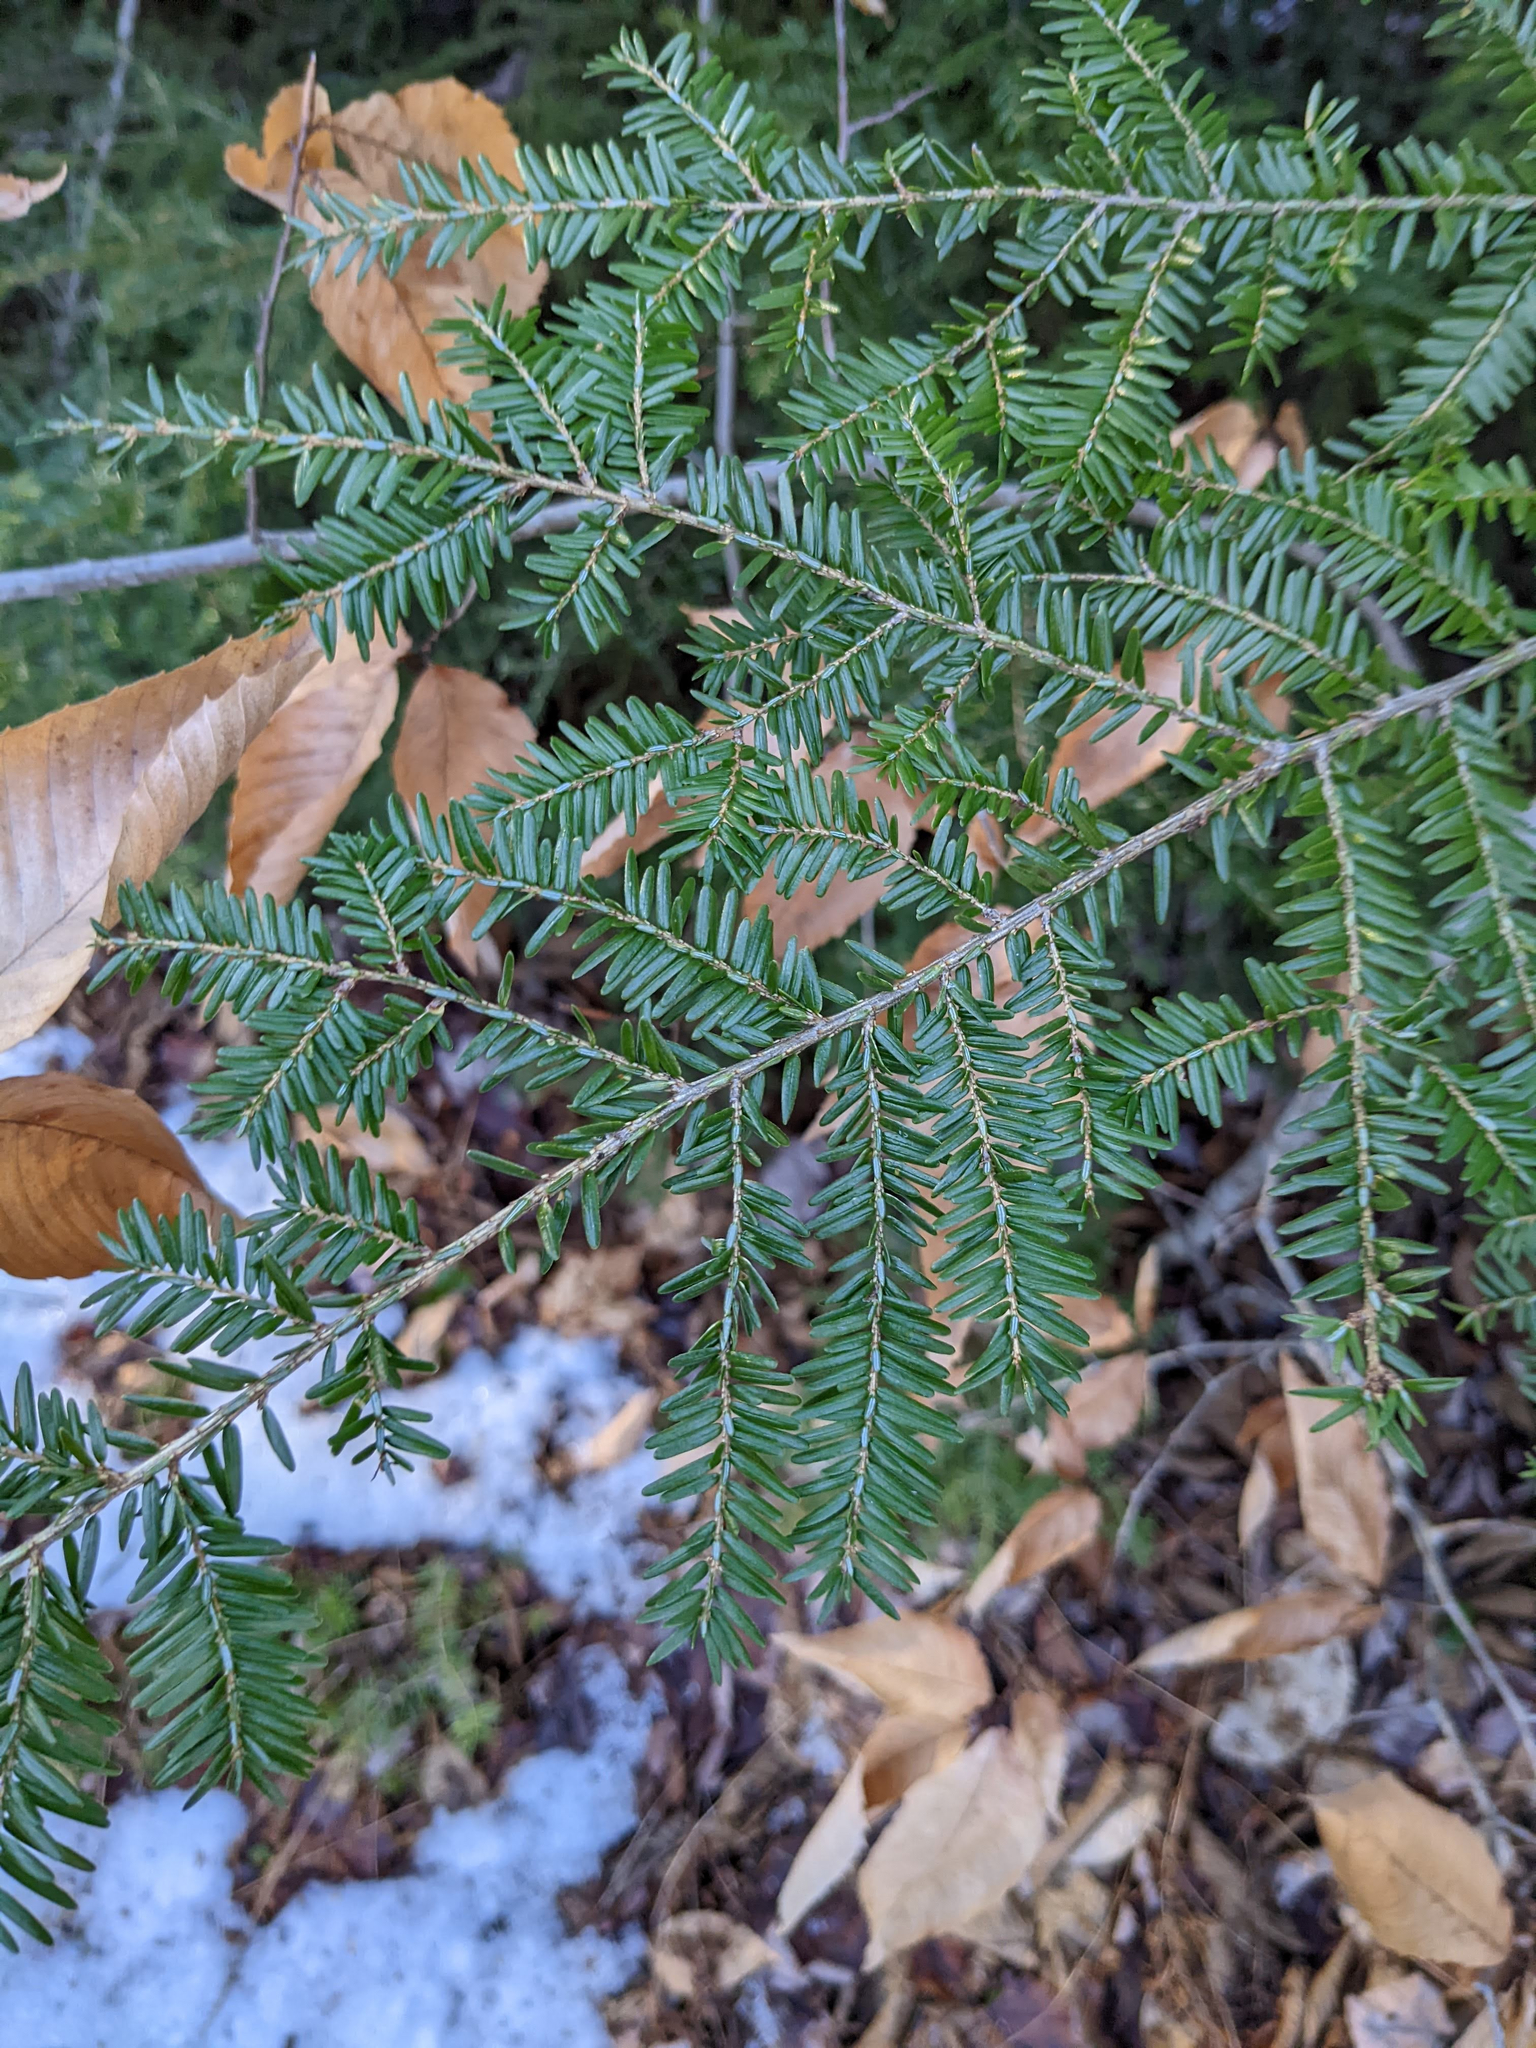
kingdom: Plantae
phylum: Tracheophyta
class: Pinopsida
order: Pinales
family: Pinaceae
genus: Tsuga
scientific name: Tsuga canadensis
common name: Eastern hemlock
